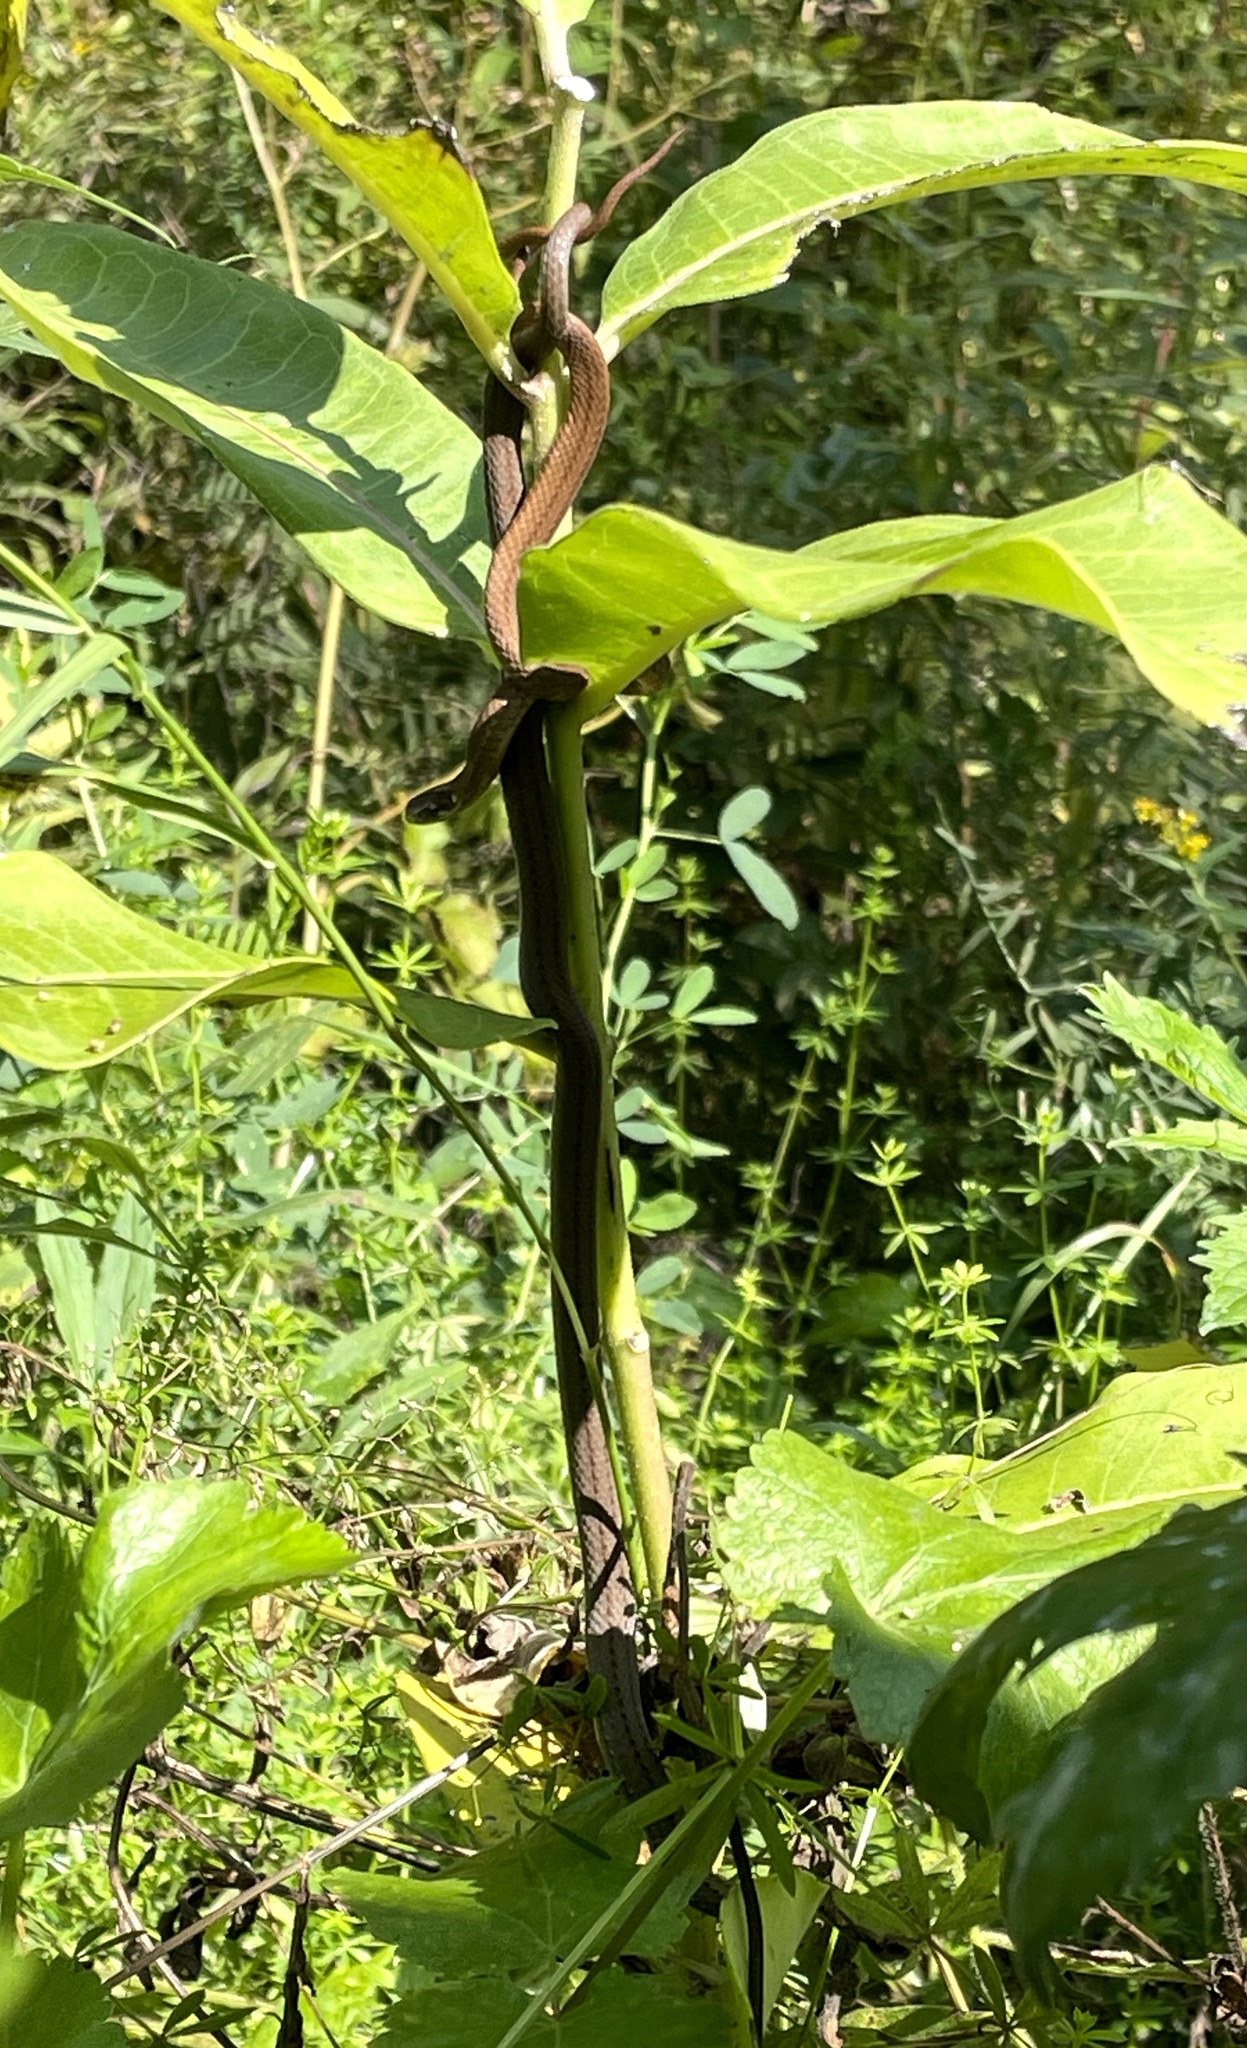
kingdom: Animalia
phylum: Chordata
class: Squamata
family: Colubridae
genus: Storeria
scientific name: Storeria occipitomaculata
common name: Redbelly snake
